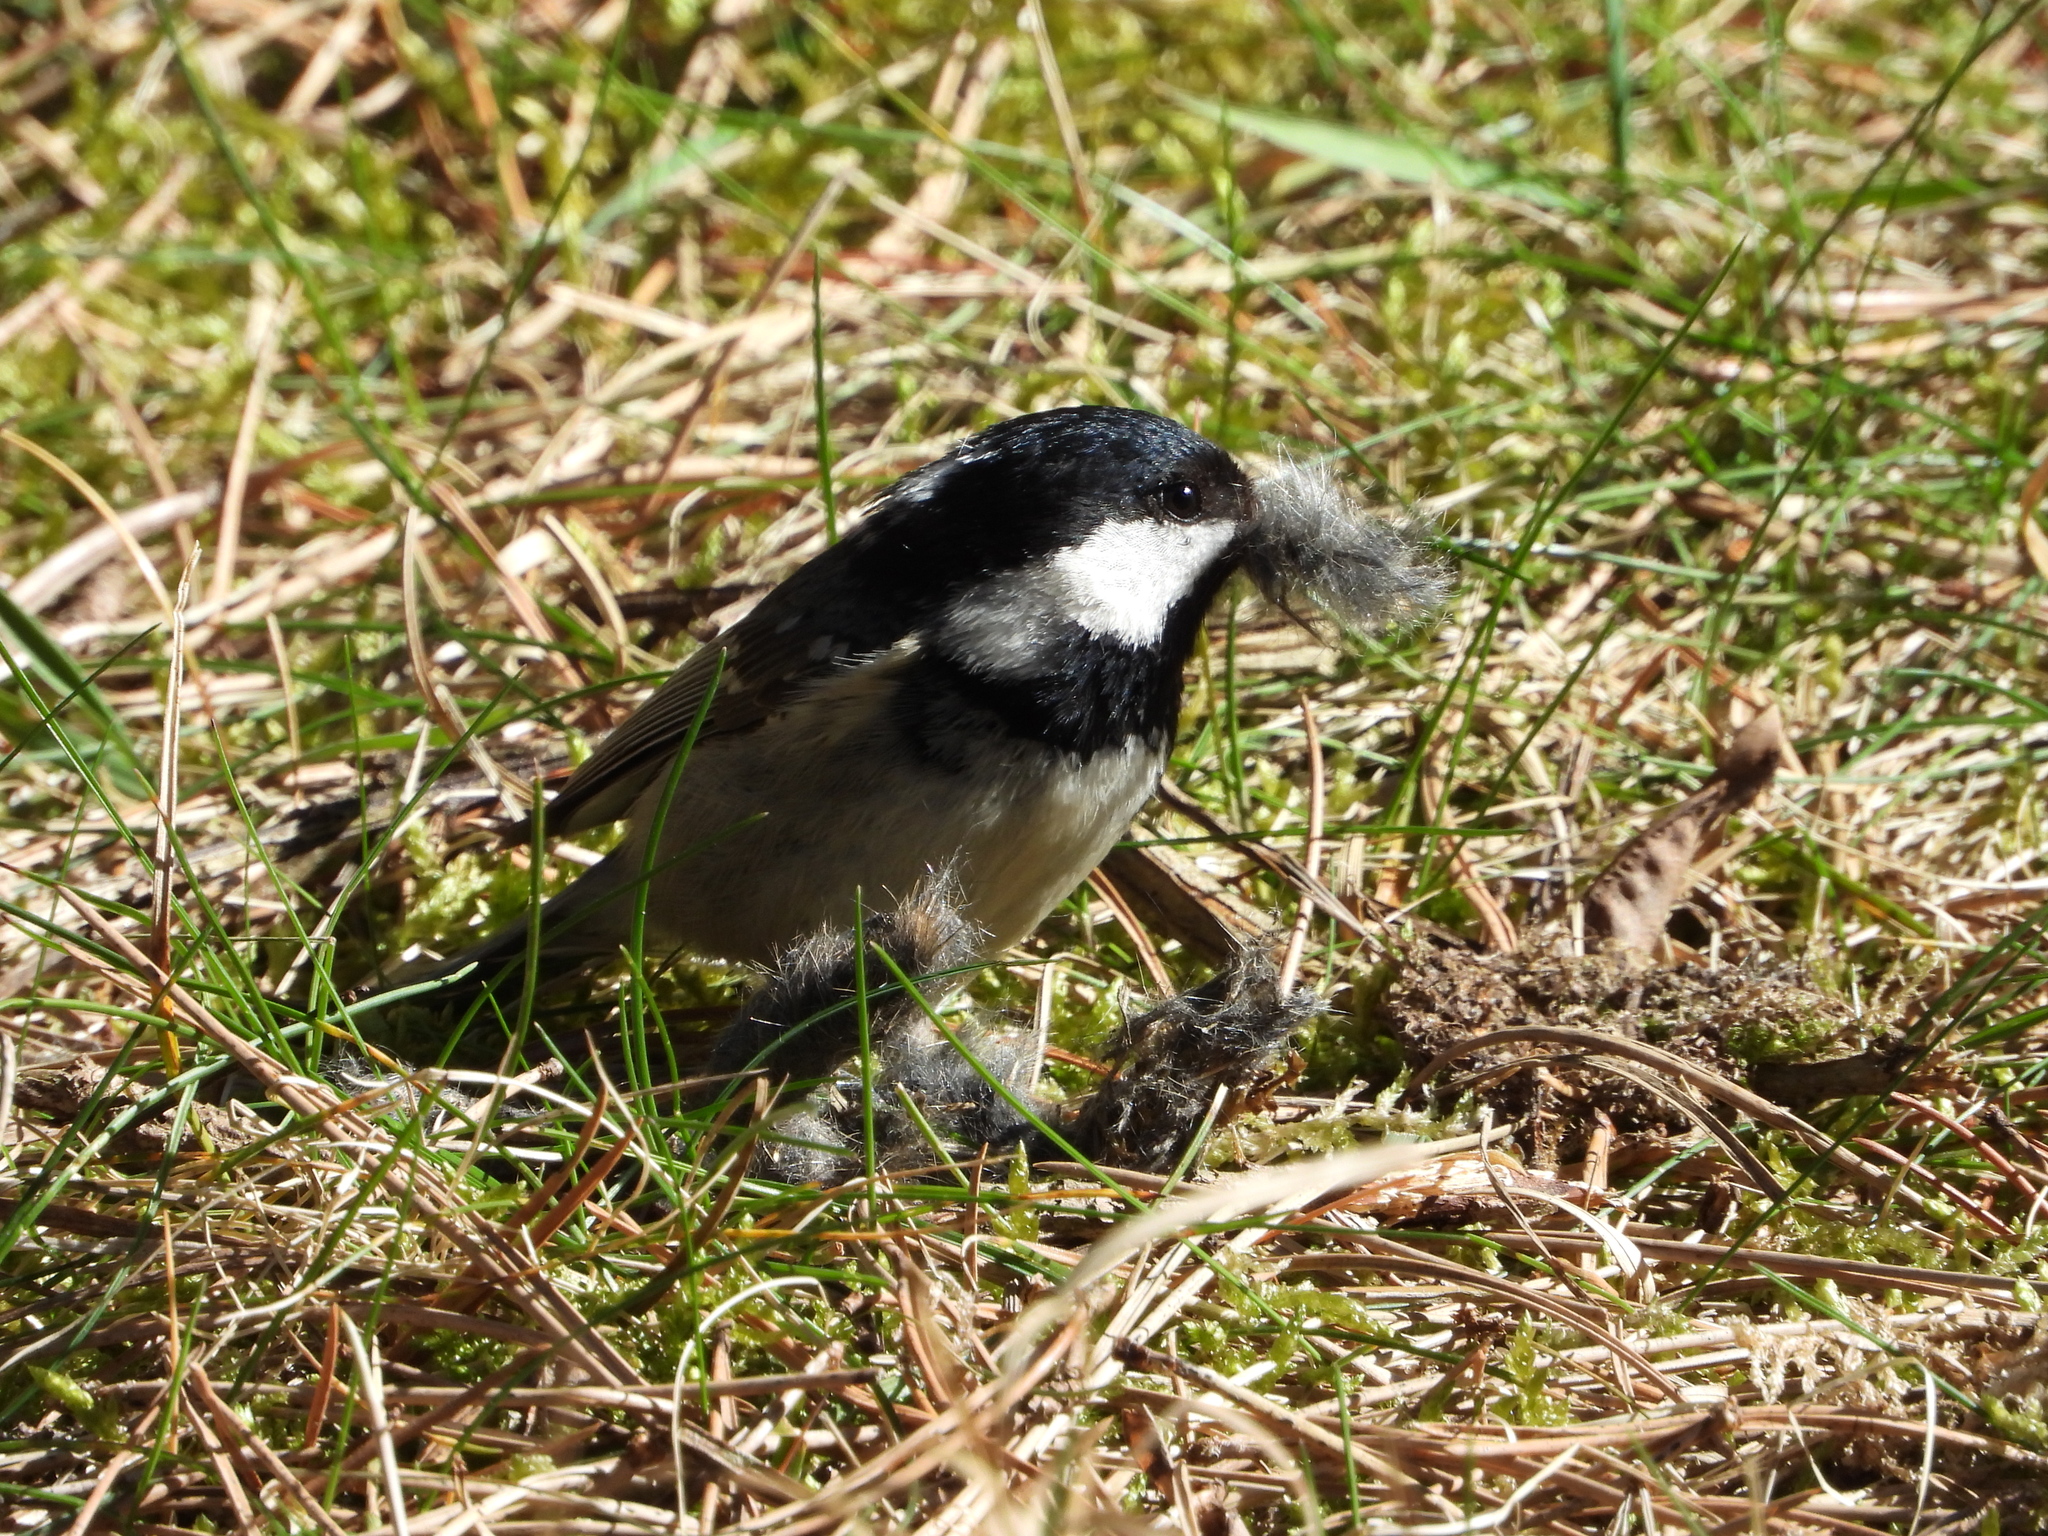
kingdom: Animalia
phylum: Chordata
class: Aves
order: Passeriformes
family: Paridae
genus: Periparus
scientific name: Periparus ater
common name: Coal tit
